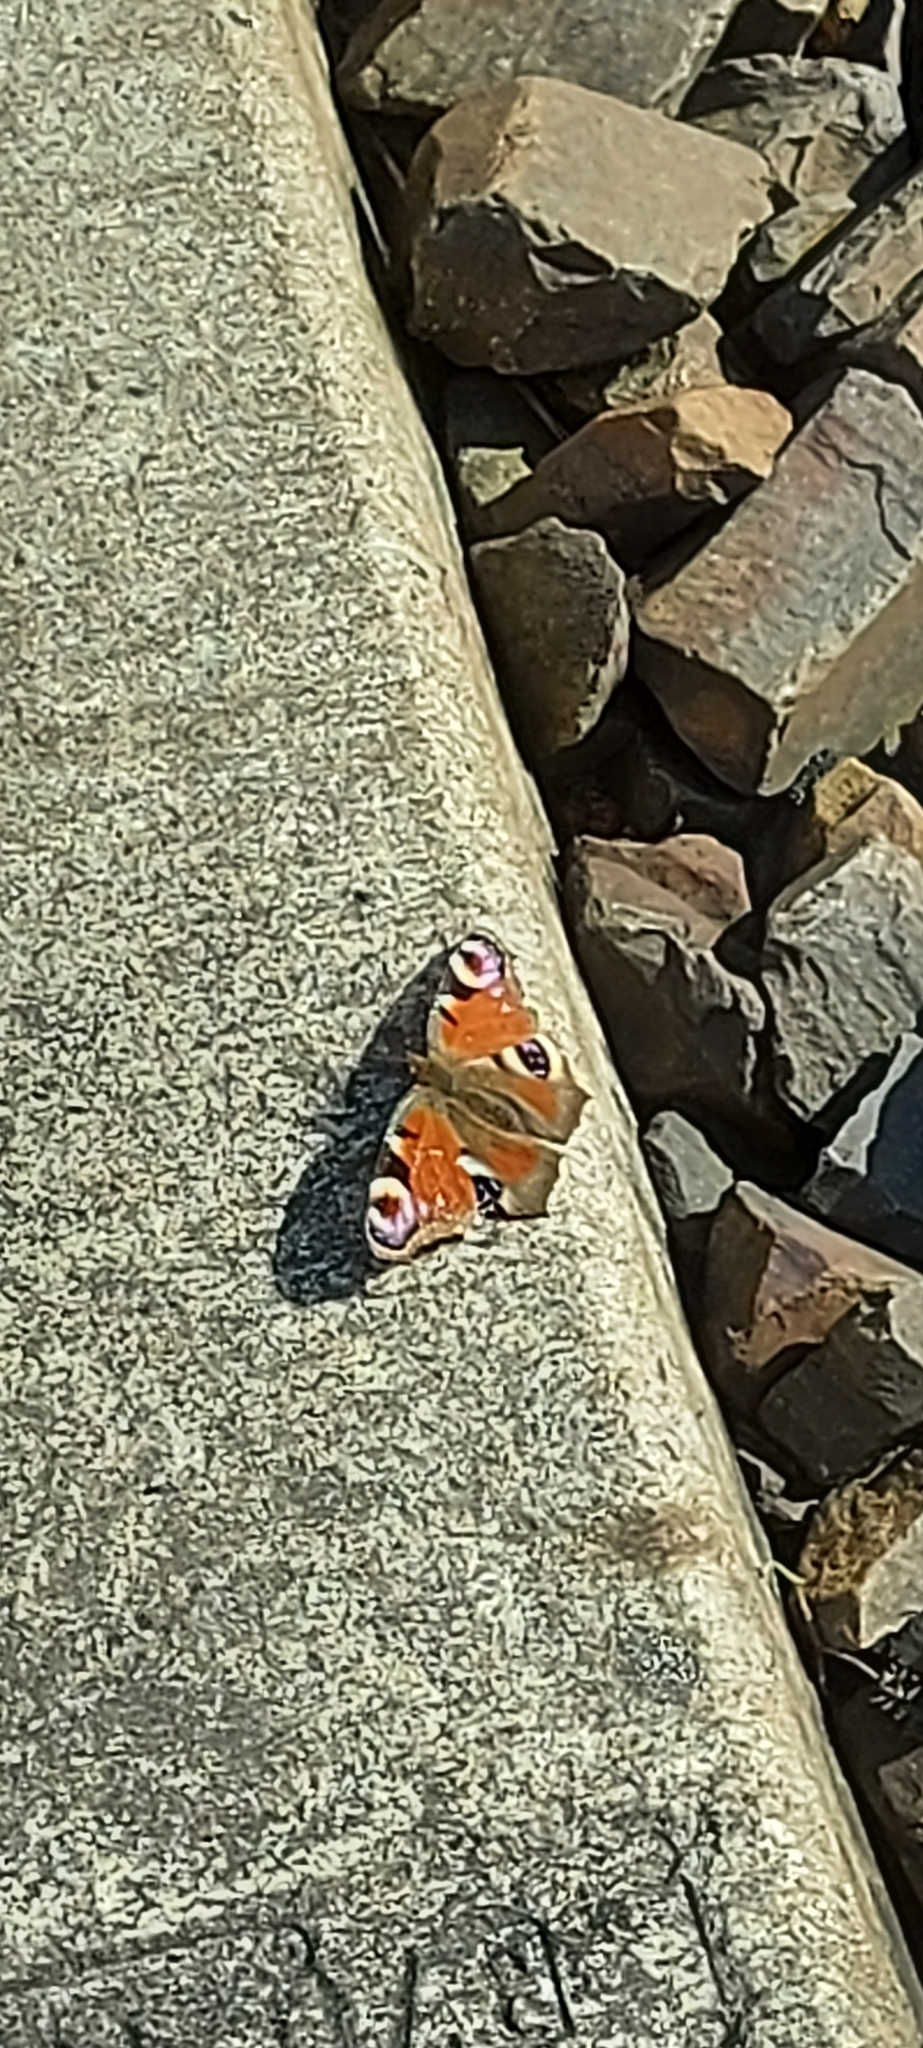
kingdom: Animalia
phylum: Arthropoda
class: Insecta
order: Lepidoptera
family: Nymphalidae
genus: Aglais
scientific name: Aglais io
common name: Peacock
